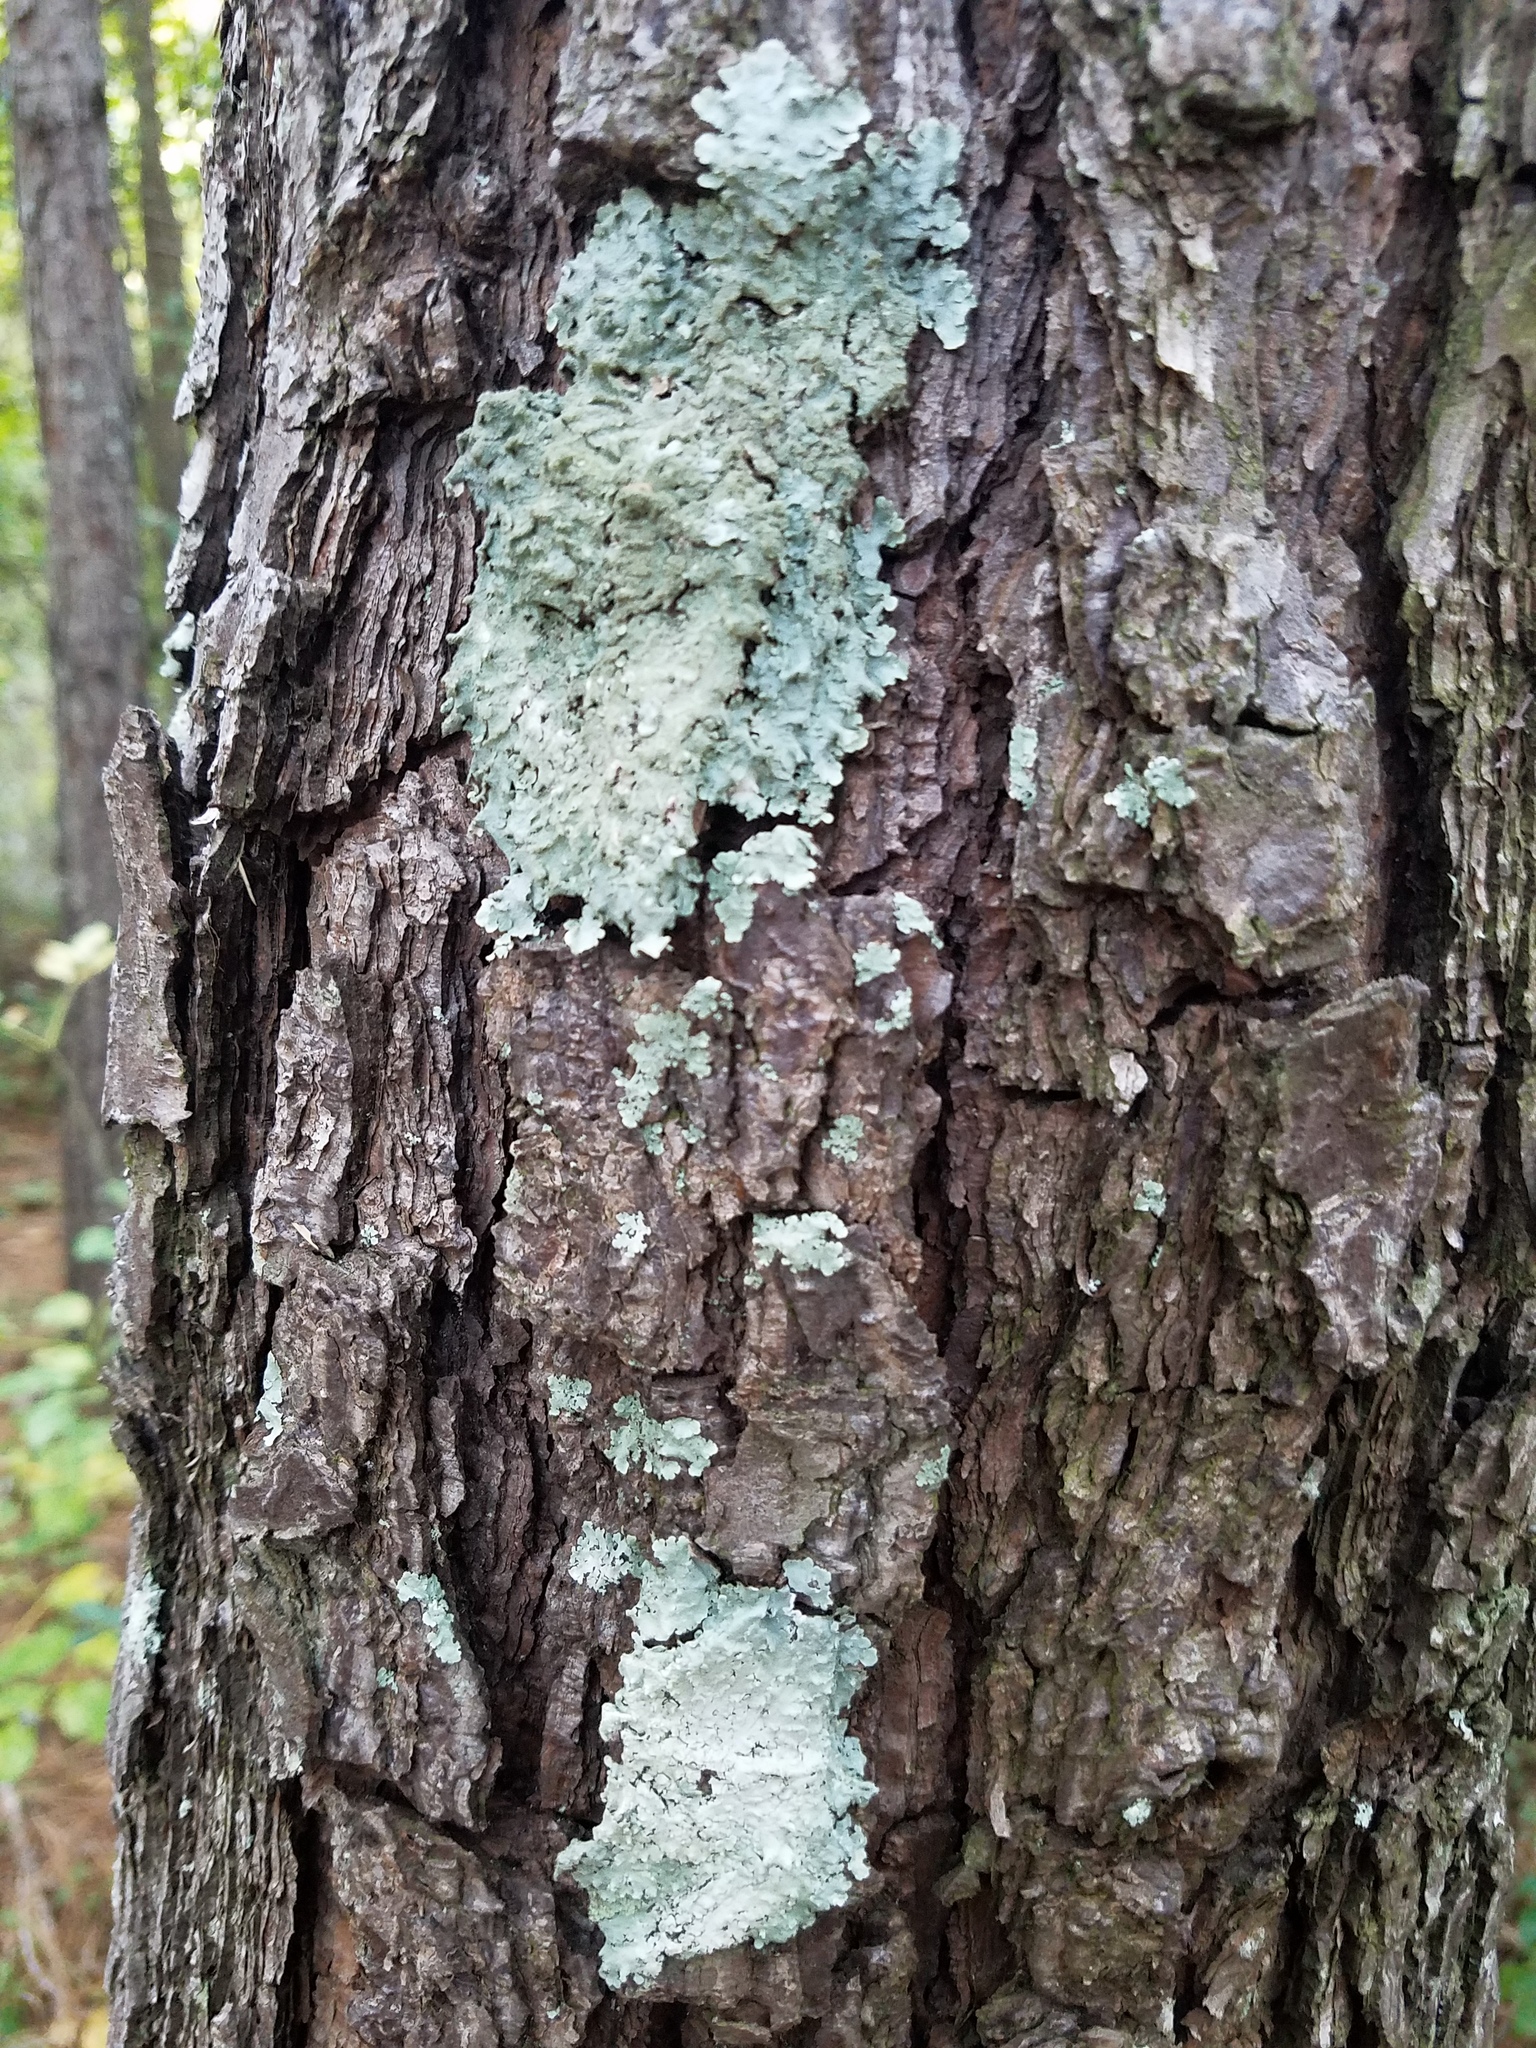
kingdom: Fungi
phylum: Ascomycota
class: Lecanoromycetes
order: Lecanorales
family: Parmeliaceae
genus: Canoparmelia
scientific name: Canoparmelia caroliniana
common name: Carolina shield lichen
